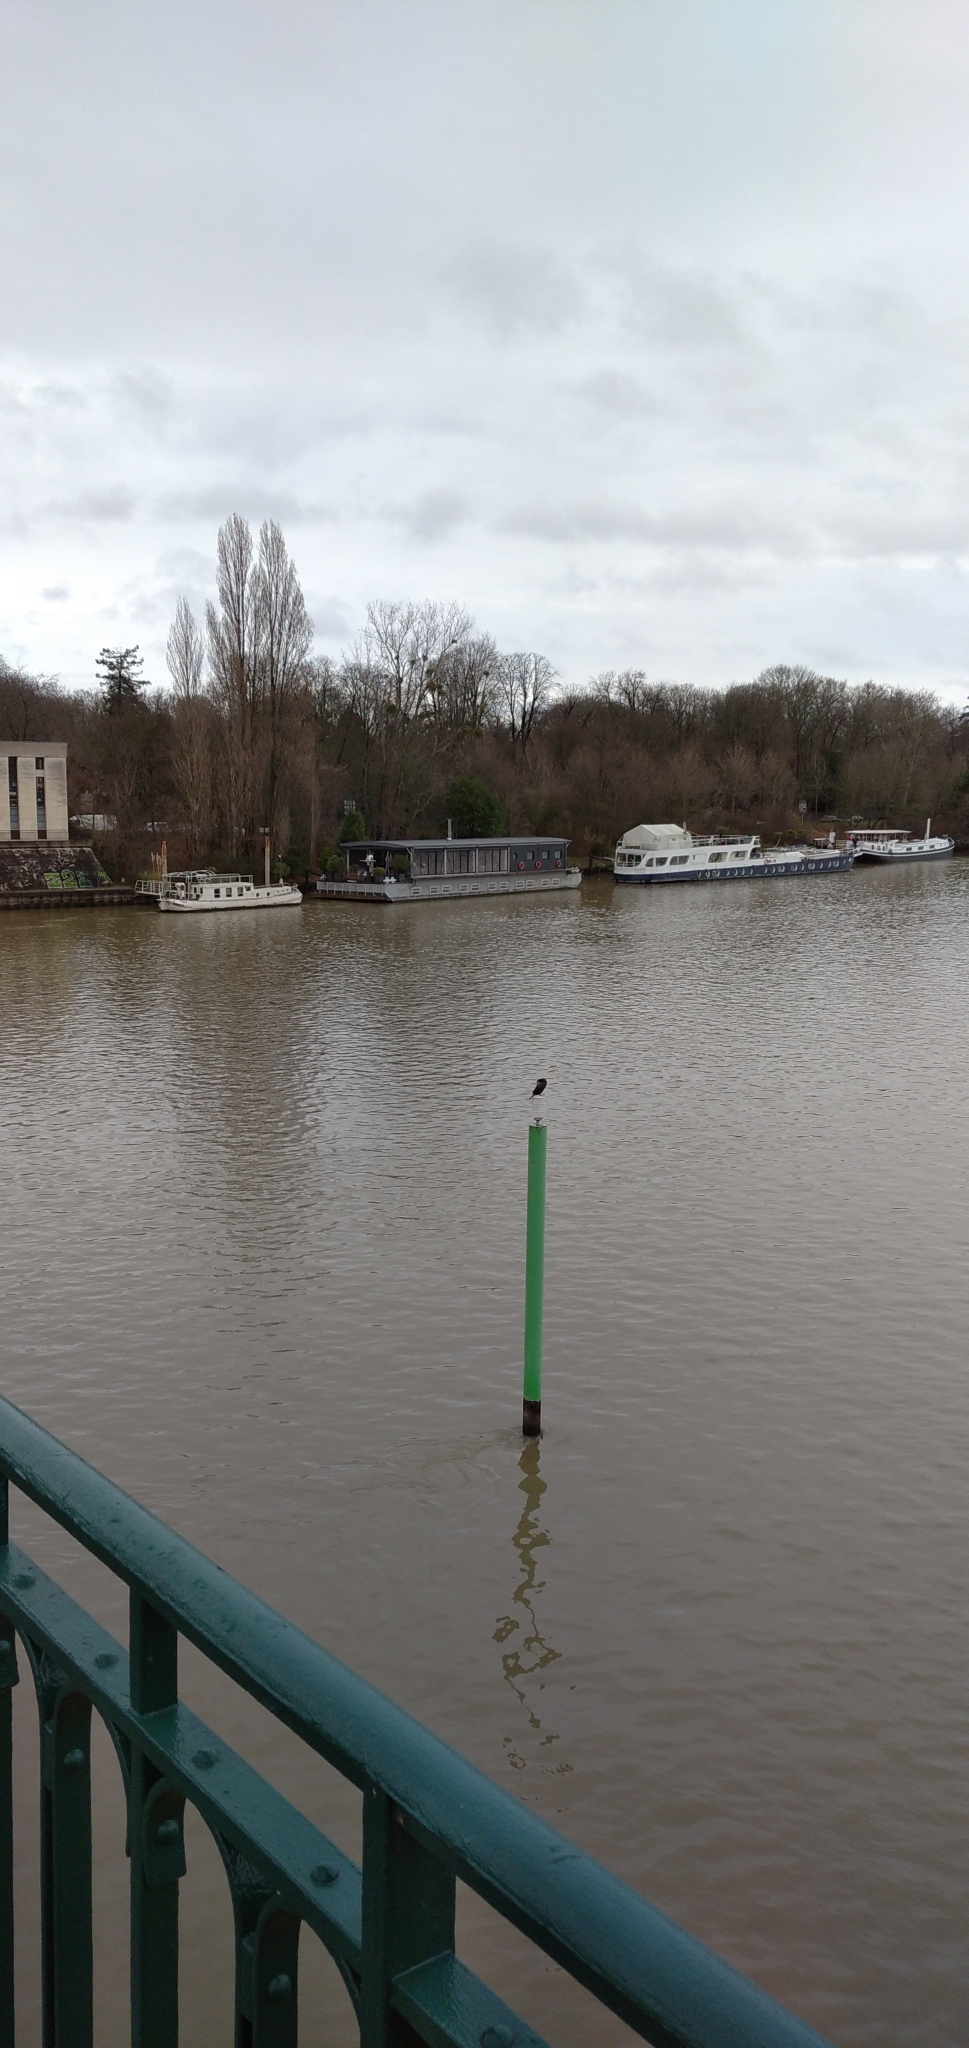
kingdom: Animalia
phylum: Chordata
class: Aves
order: Suliformes
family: Phalacrocoracidae
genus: Phalacrocorax
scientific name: Phalacrocorax carbo
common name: Great cormorant
